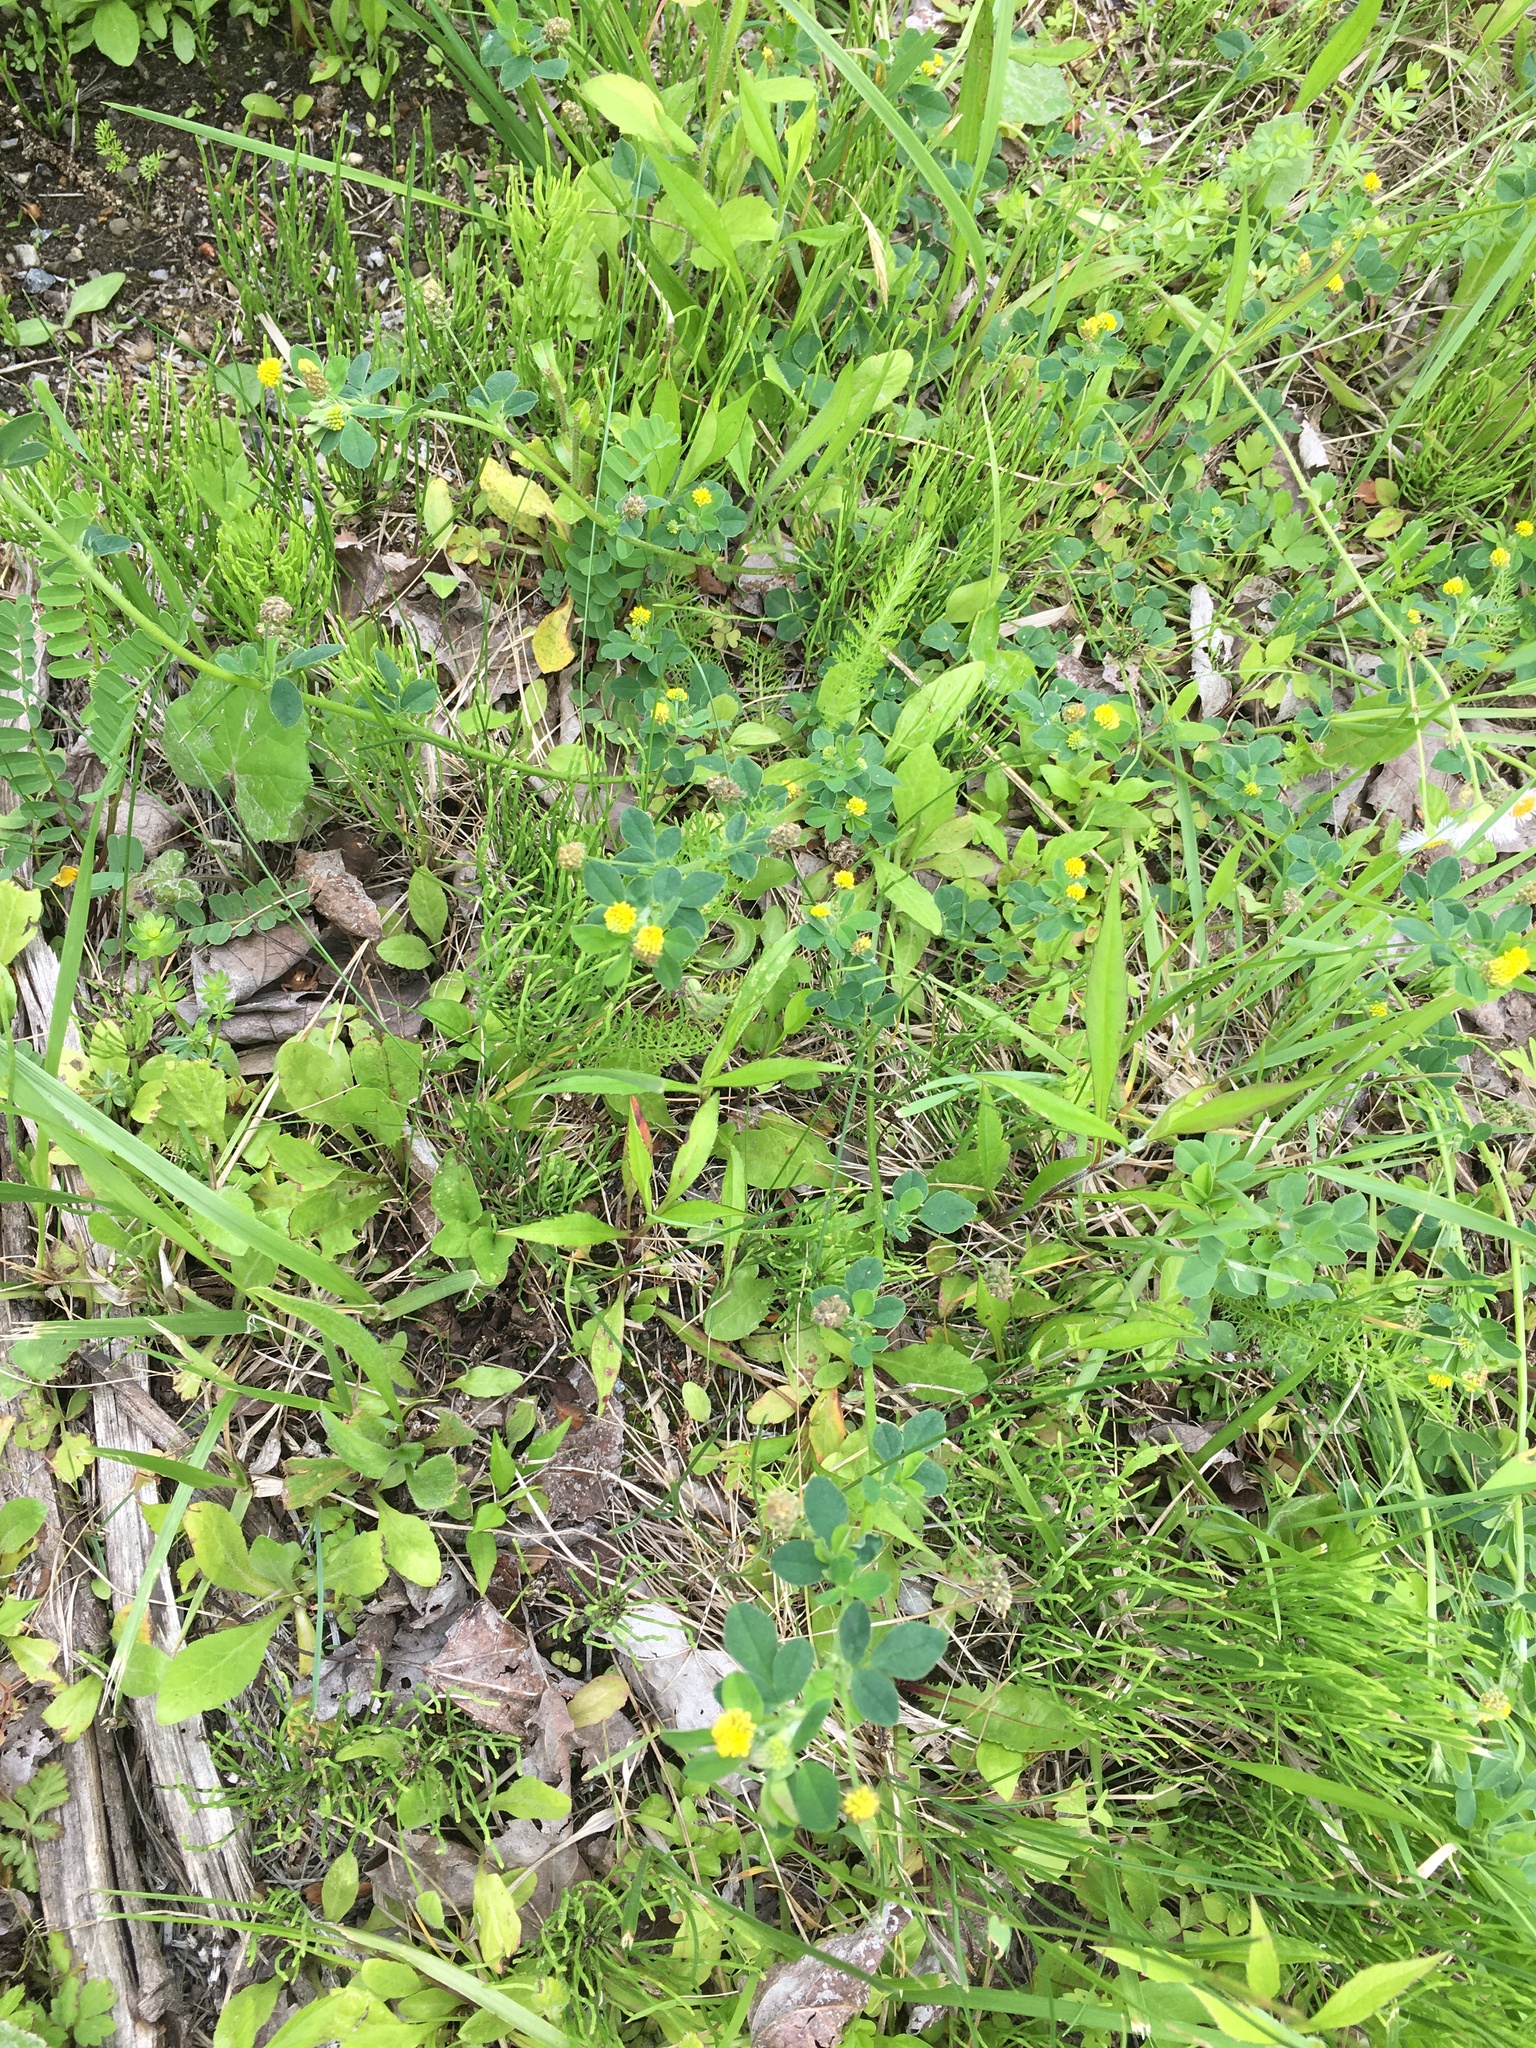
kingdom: Plantae
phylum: Tracheophyta
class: Magnoliopsida
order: Fabales
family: Fabaceae
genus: Medicago
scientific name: Medicago lupulina
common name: Black medick
